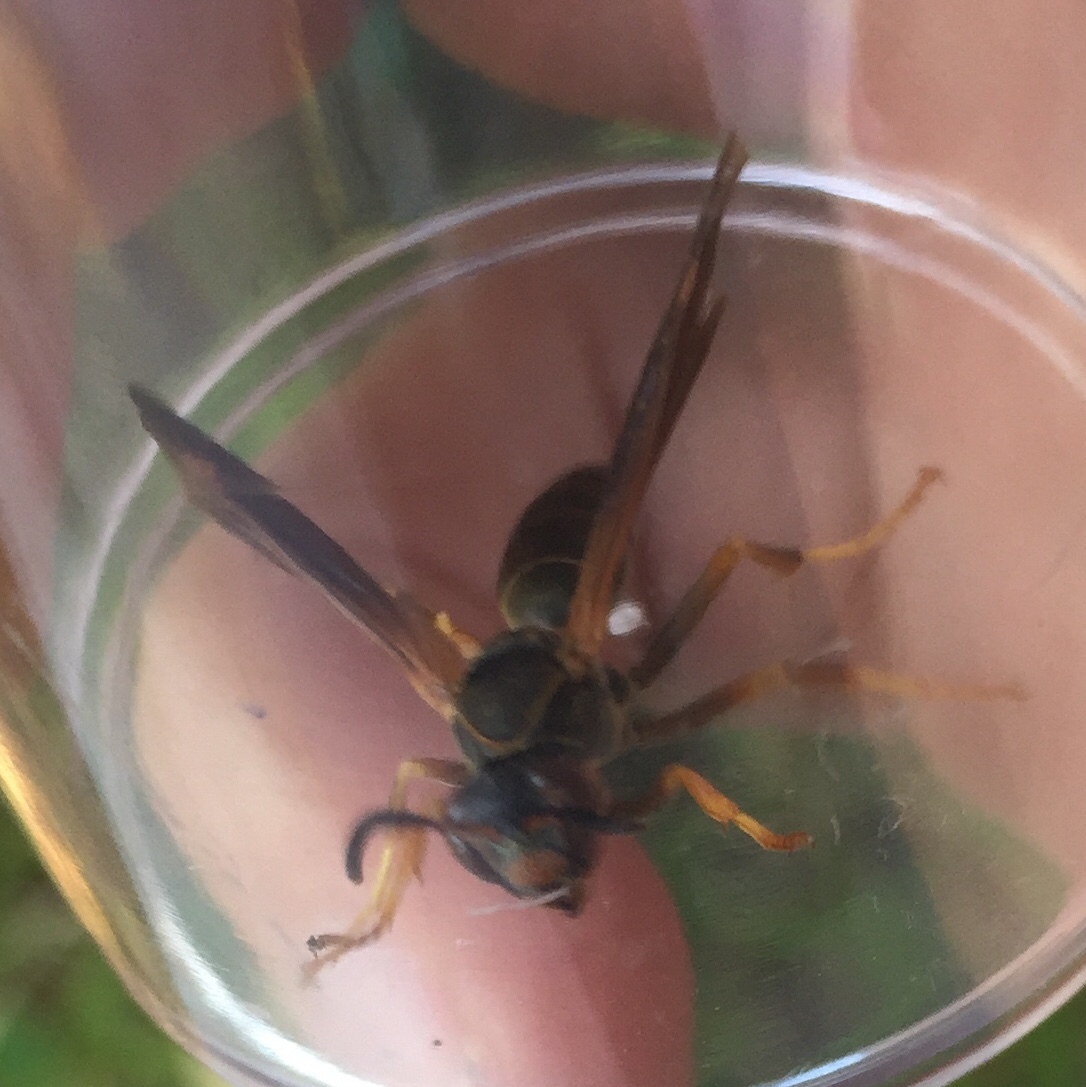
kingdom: Animalia
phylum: Arthropoda
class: Insecta
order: Hymenoptera
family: Eumenidae
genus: Polistes
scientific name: Polistes fuscatus
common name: Dark paper wasp
